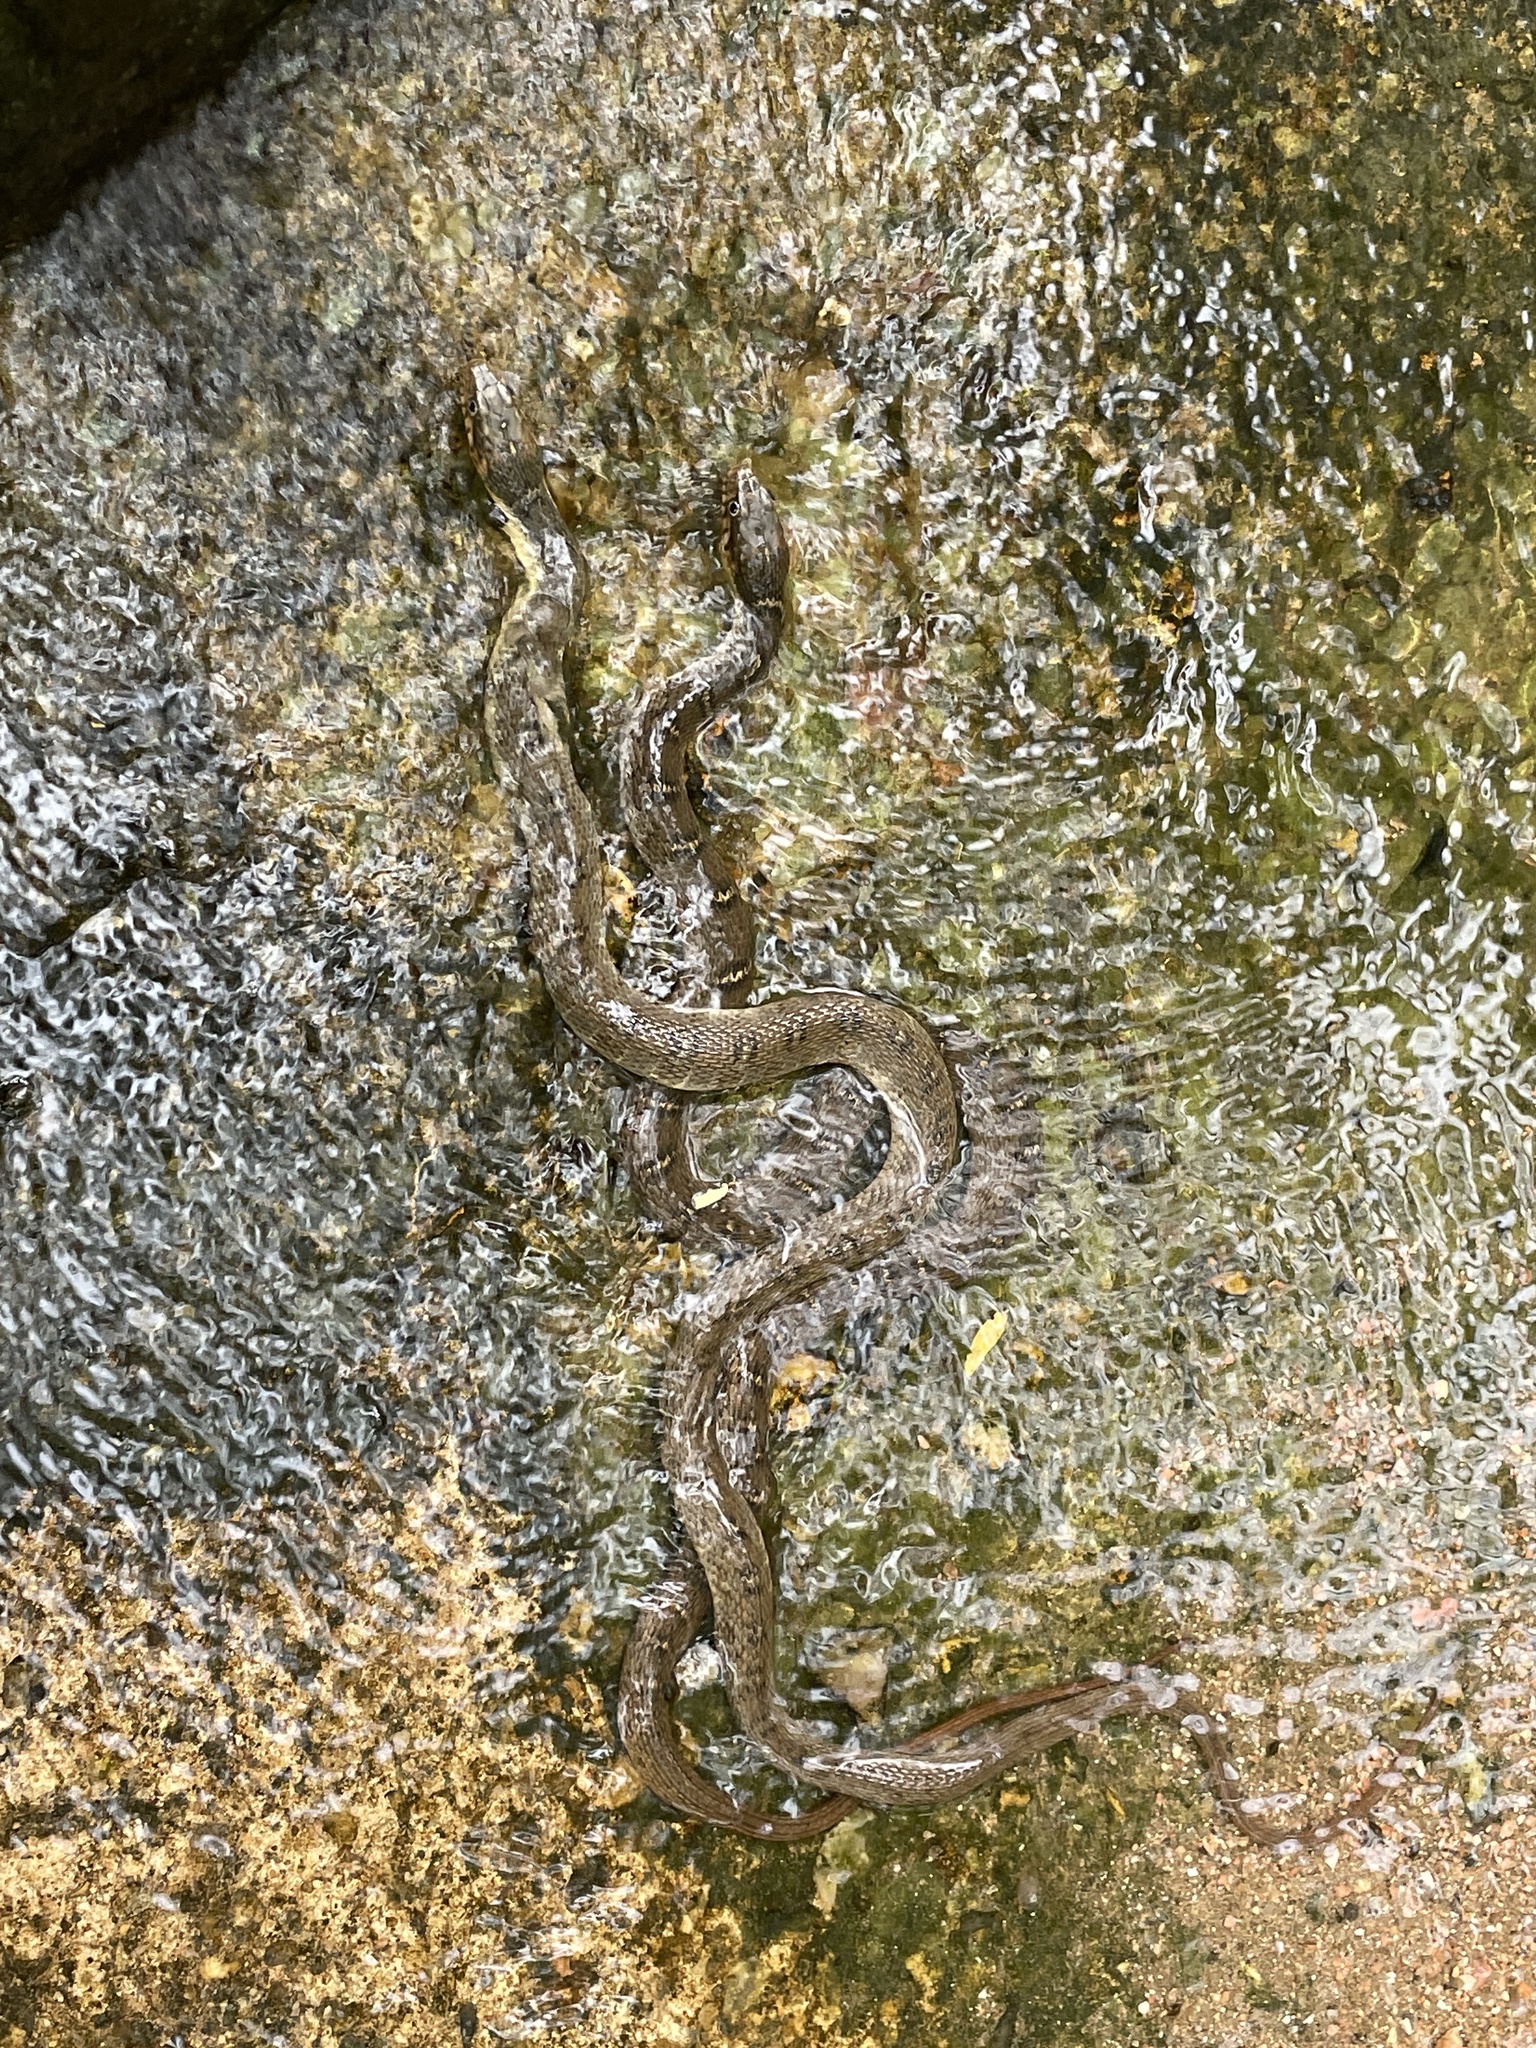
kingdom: Animalia
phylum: Chordata
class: Squamata
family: Colubridae
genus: Nerodia
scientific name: Nerodia erythrogaster
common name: Plainbelly water snake
